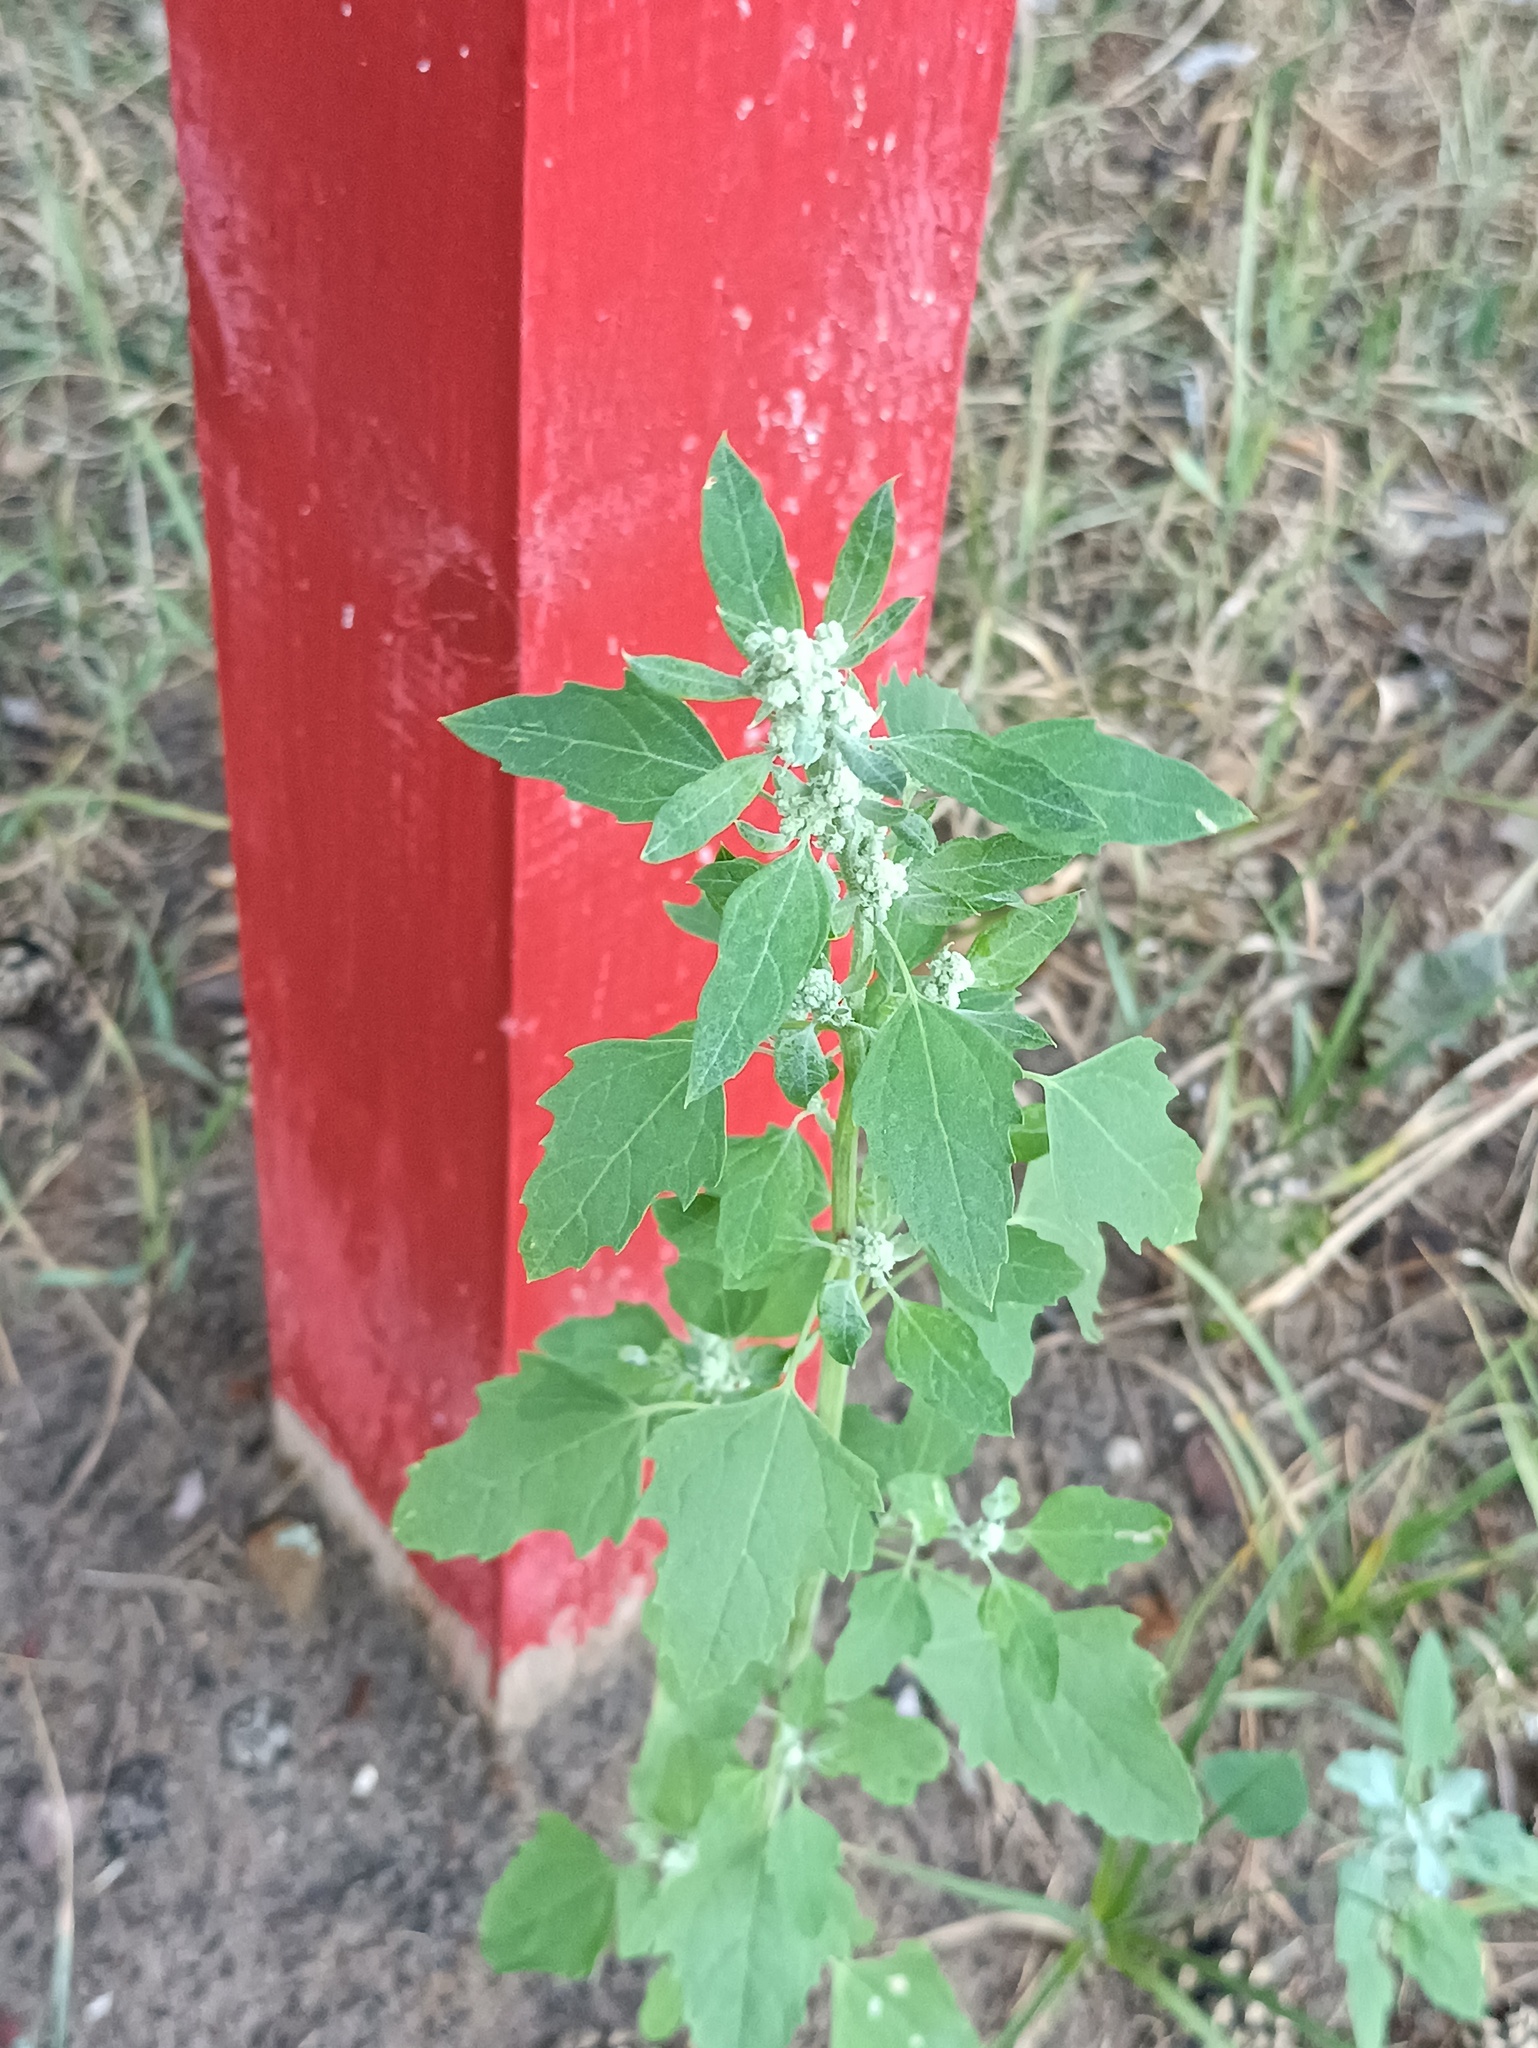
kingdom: Plantae
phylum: Tracheophyta
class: Magnoliopsida
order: Caryophyllales
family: Amaranthaceae
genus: Chenopodium
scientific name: Chenopodium album
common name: Fat-hen
